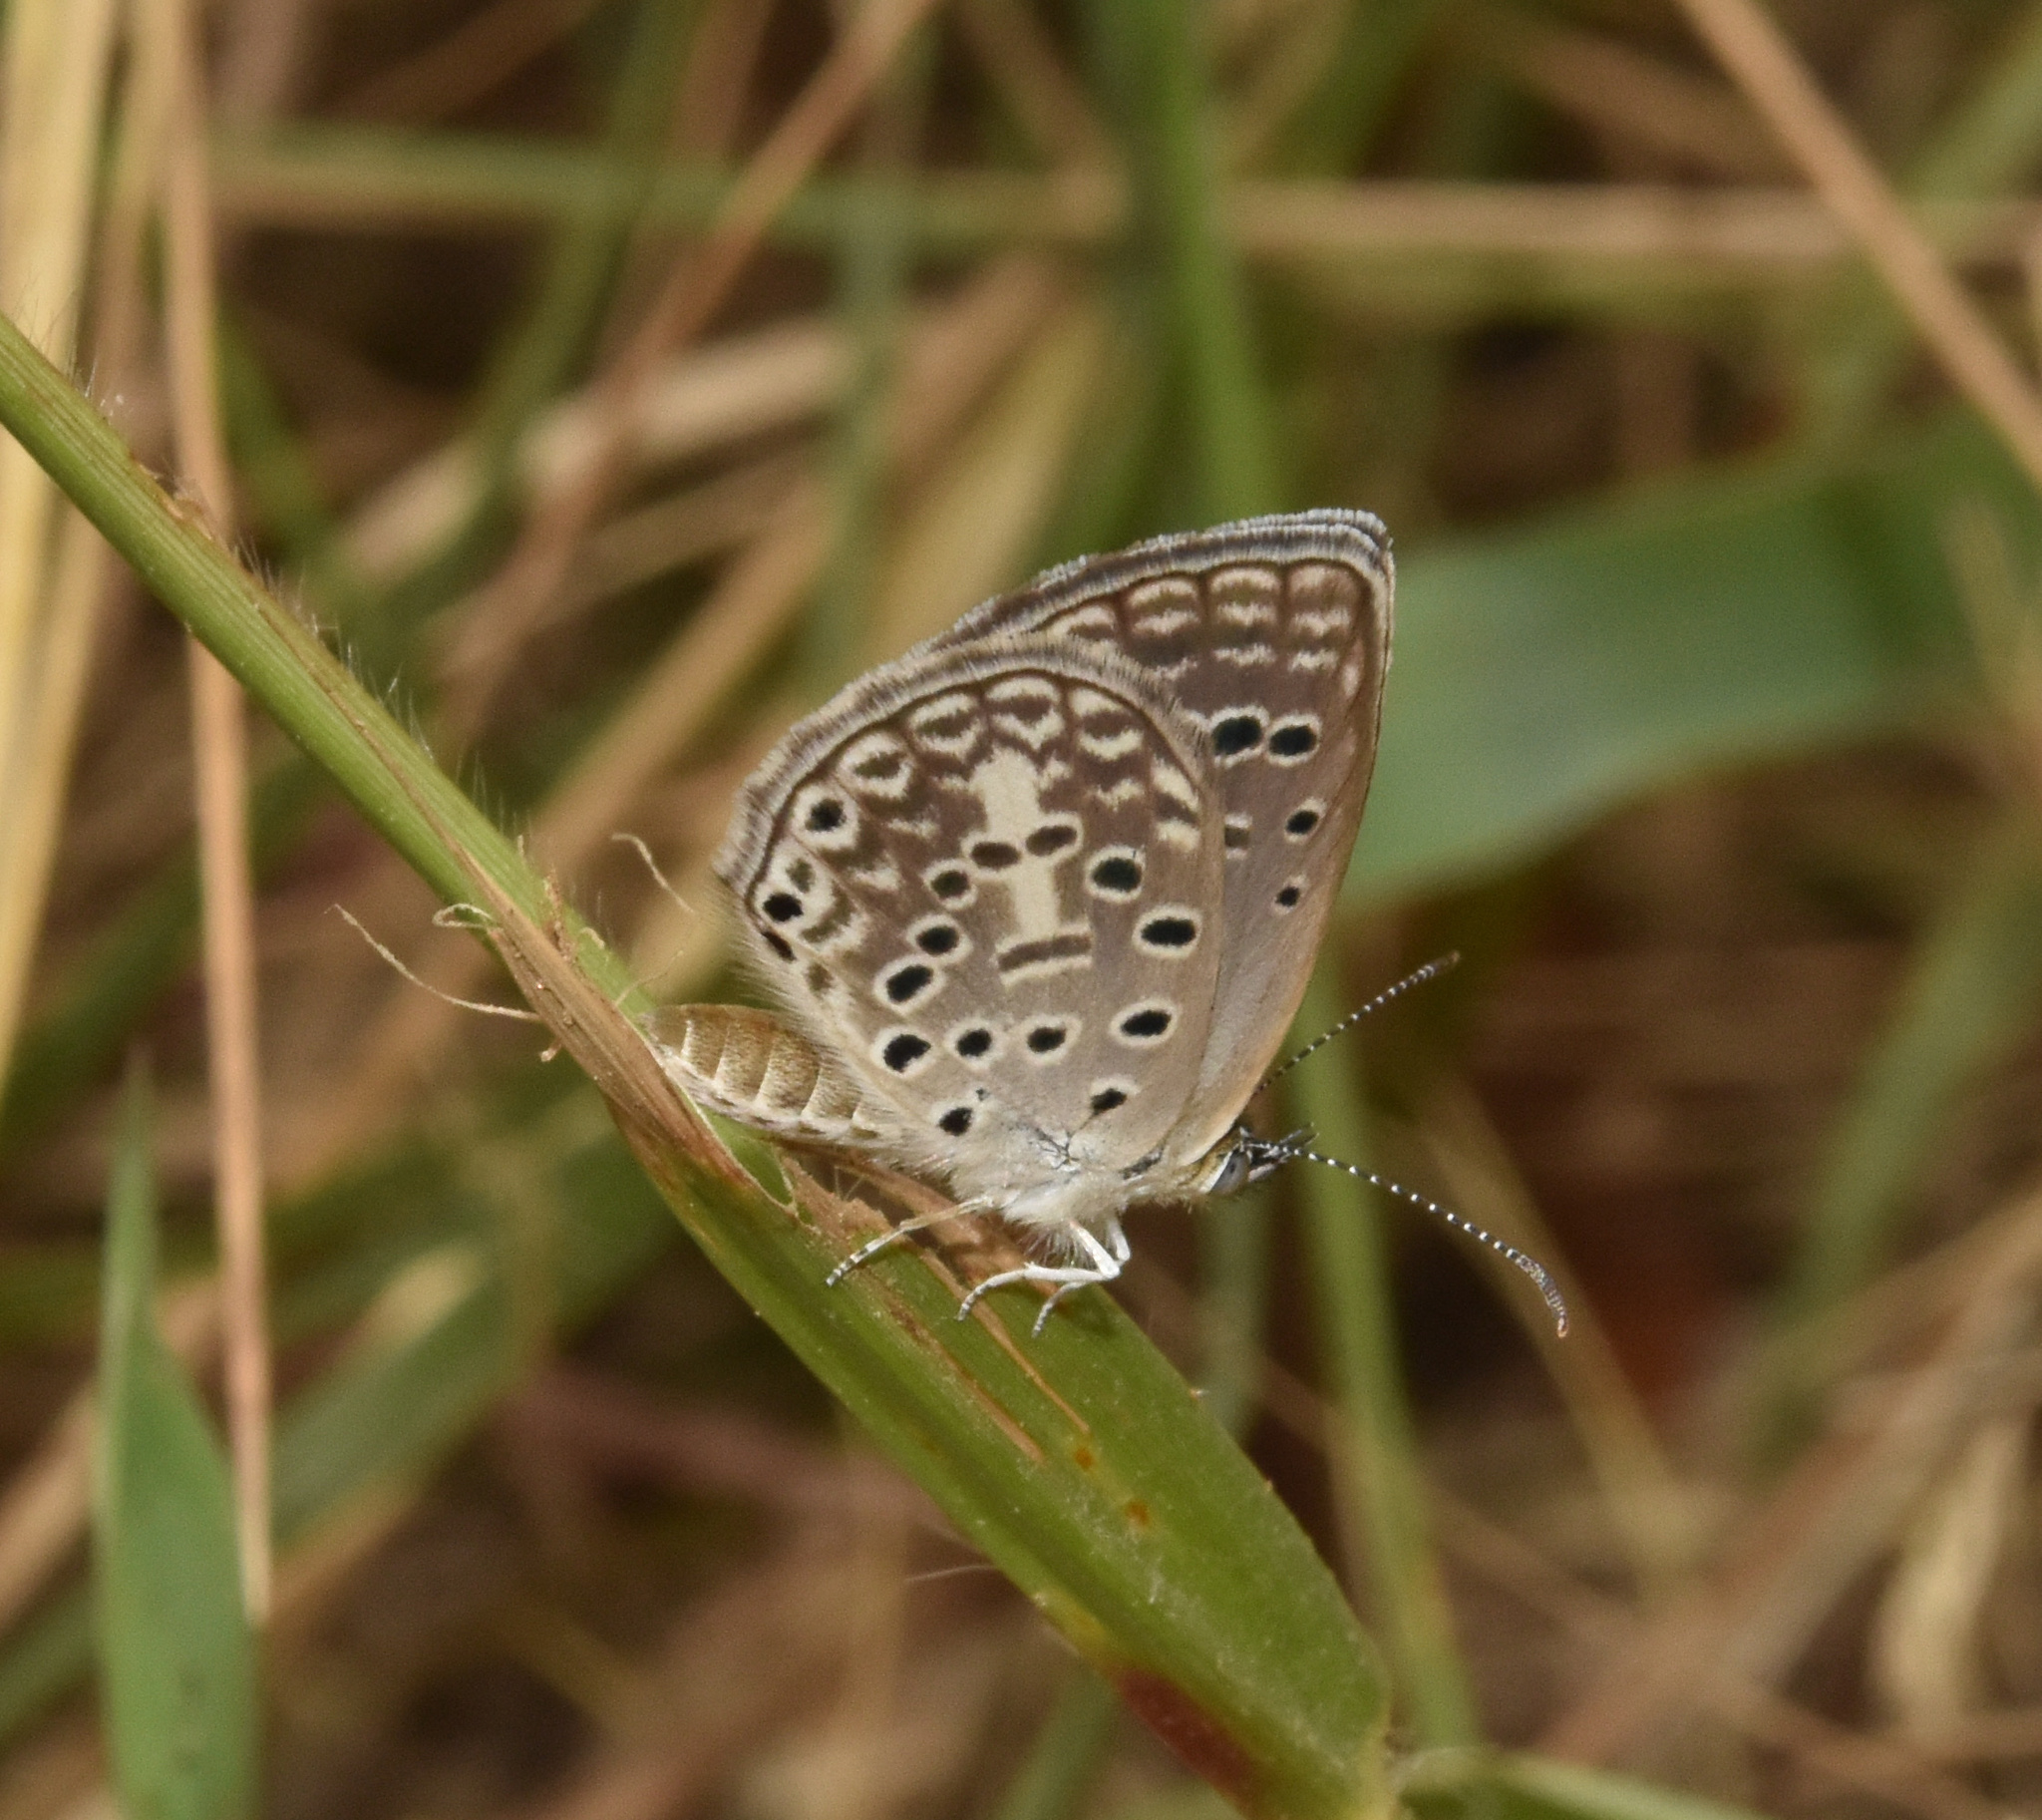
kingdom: Animalia
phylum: Arthropoda
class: Insecta
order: Lepidoptera
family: Lycaenidae
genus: Actizera
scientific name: Actizera lucida
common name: Rayed blue
